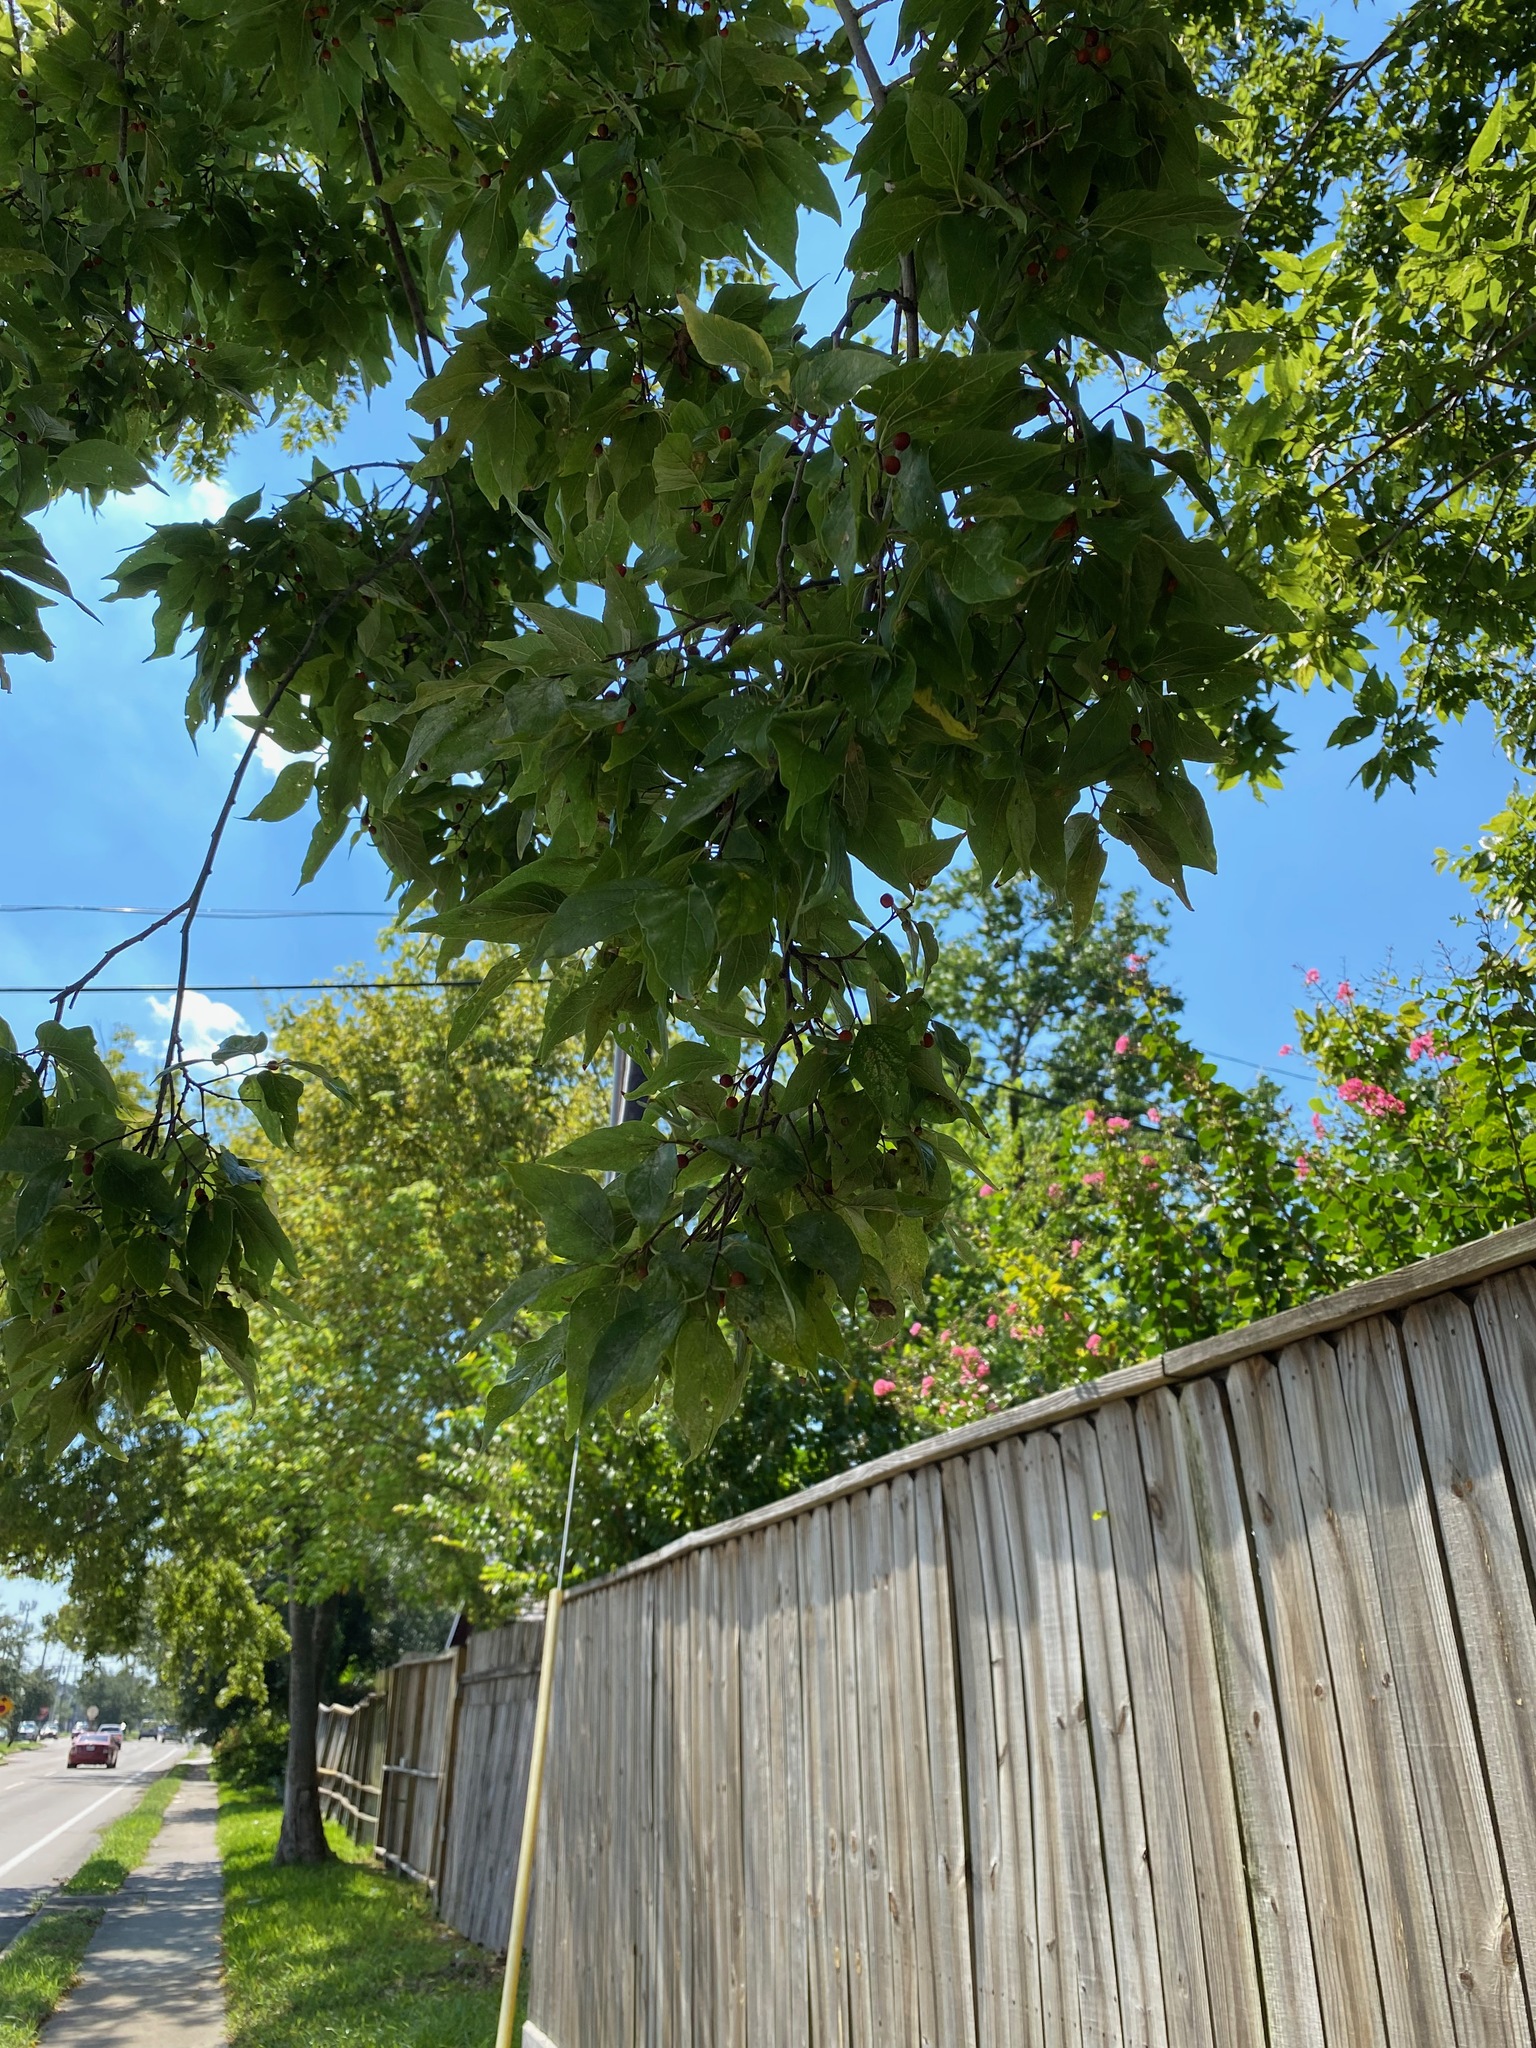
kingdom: Plantae
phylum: Tracheophyta
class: Magnoliopsida
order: Rosales
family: Cannabaceae
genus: Celtis
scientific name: Celtis laevigata
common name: Sugarberry
